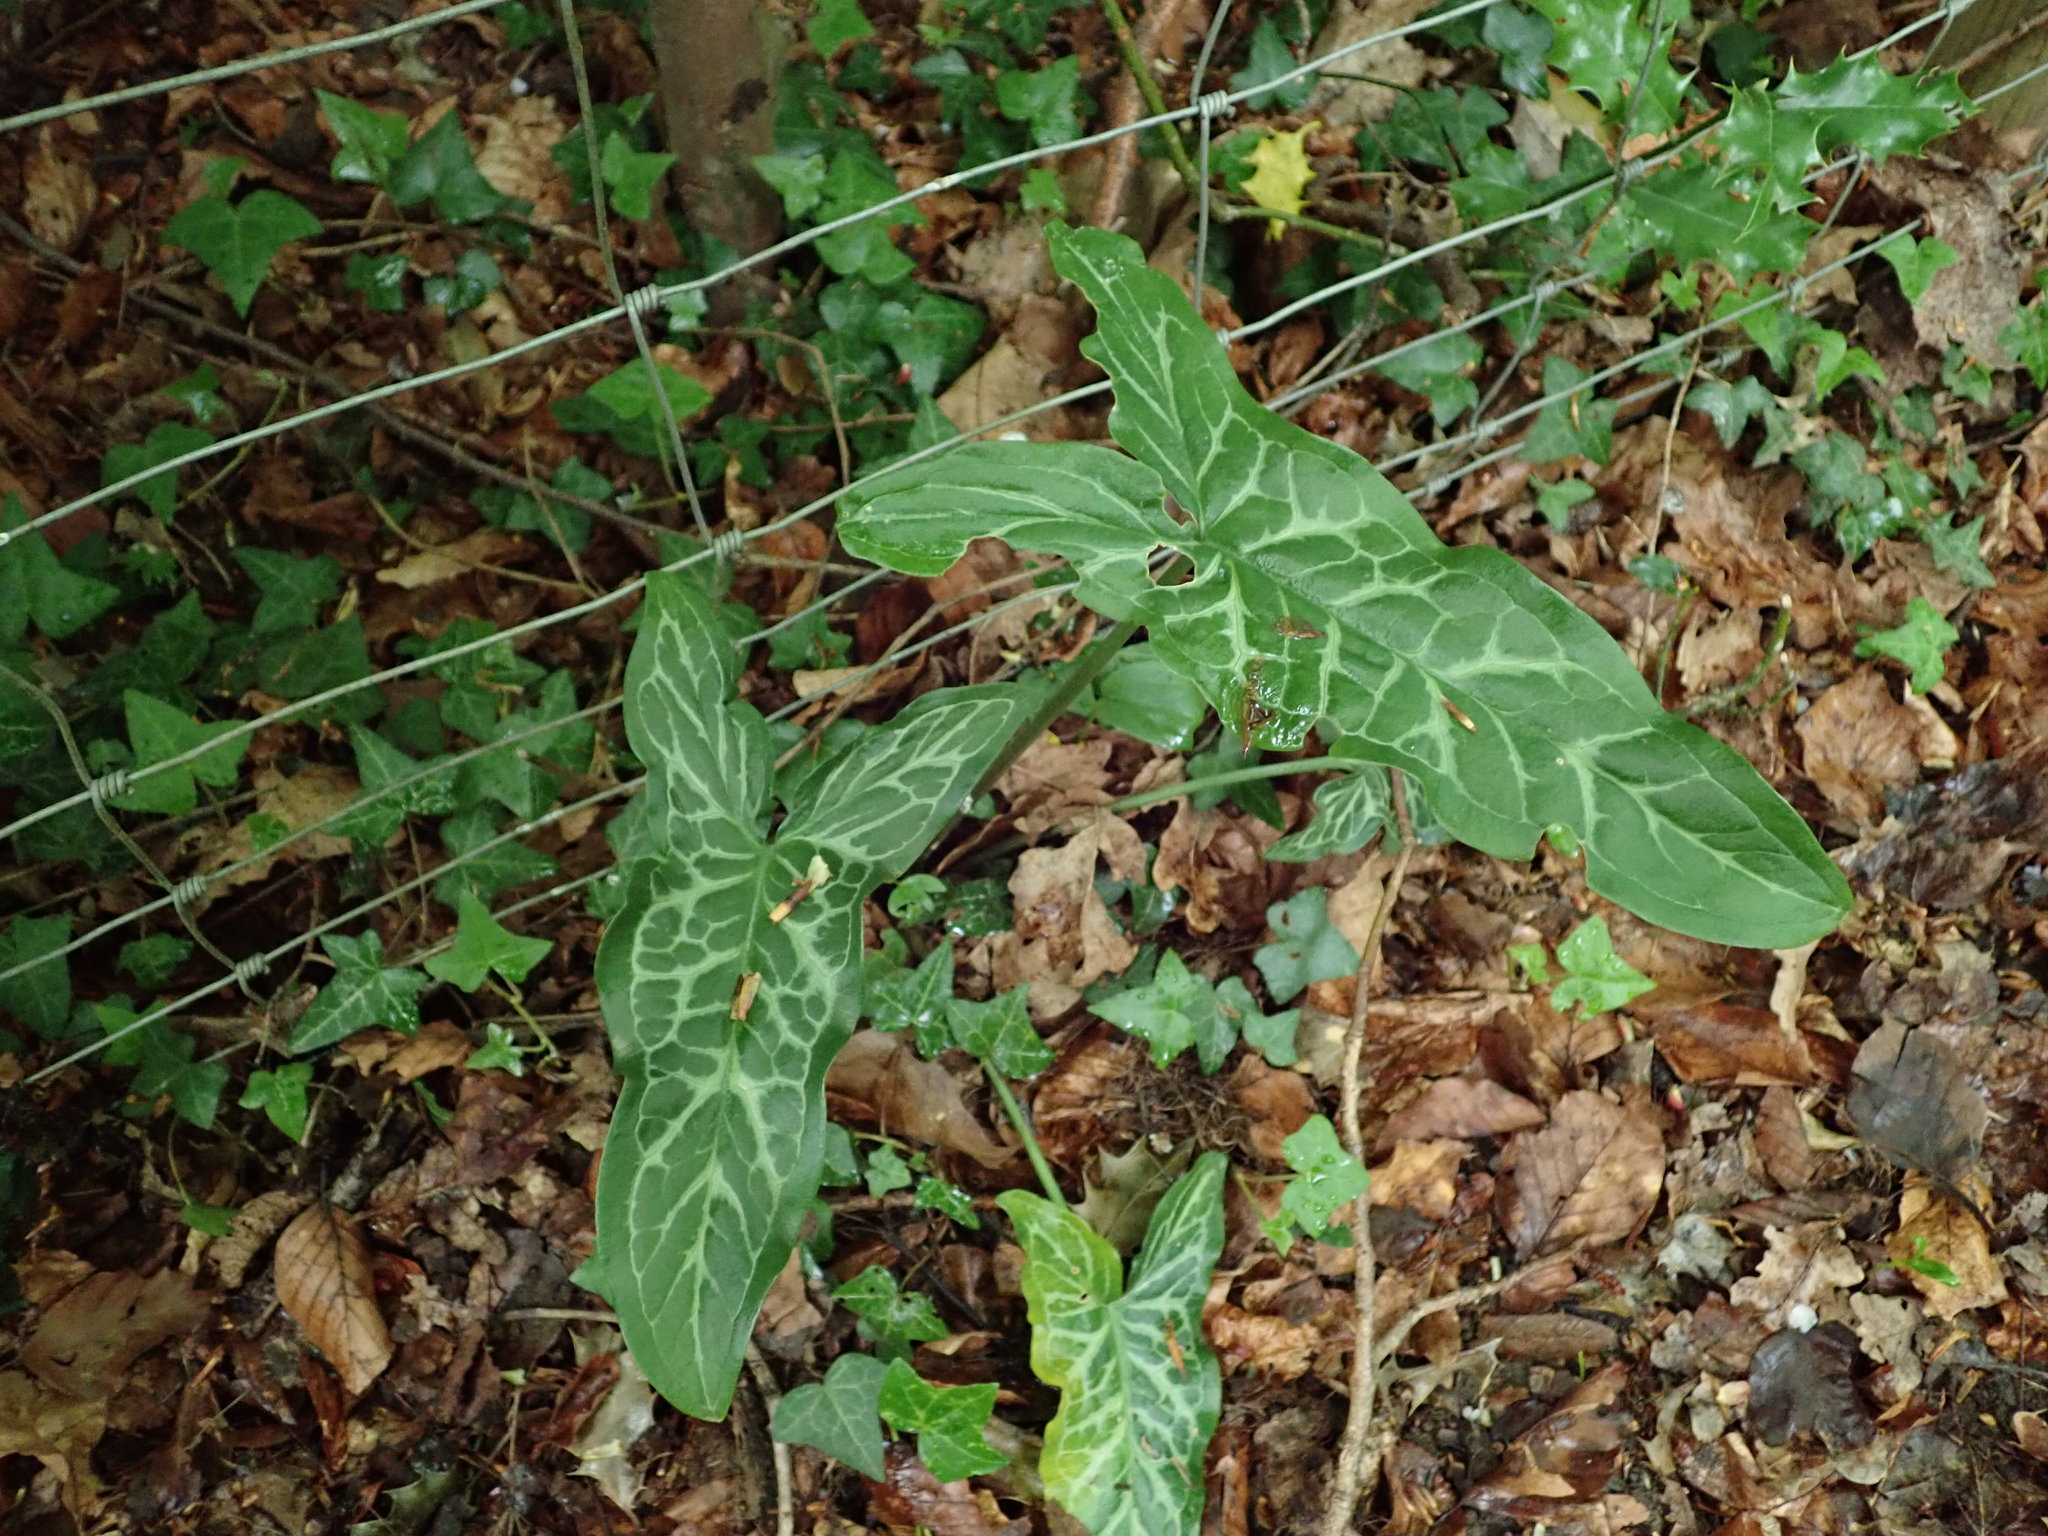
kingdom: Plantae
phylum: Tracheophyta
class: Liliopsida
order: Alismatales
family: Araceae
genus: Arum
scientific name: Arum italicum
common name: Italian lords-and-ladies
